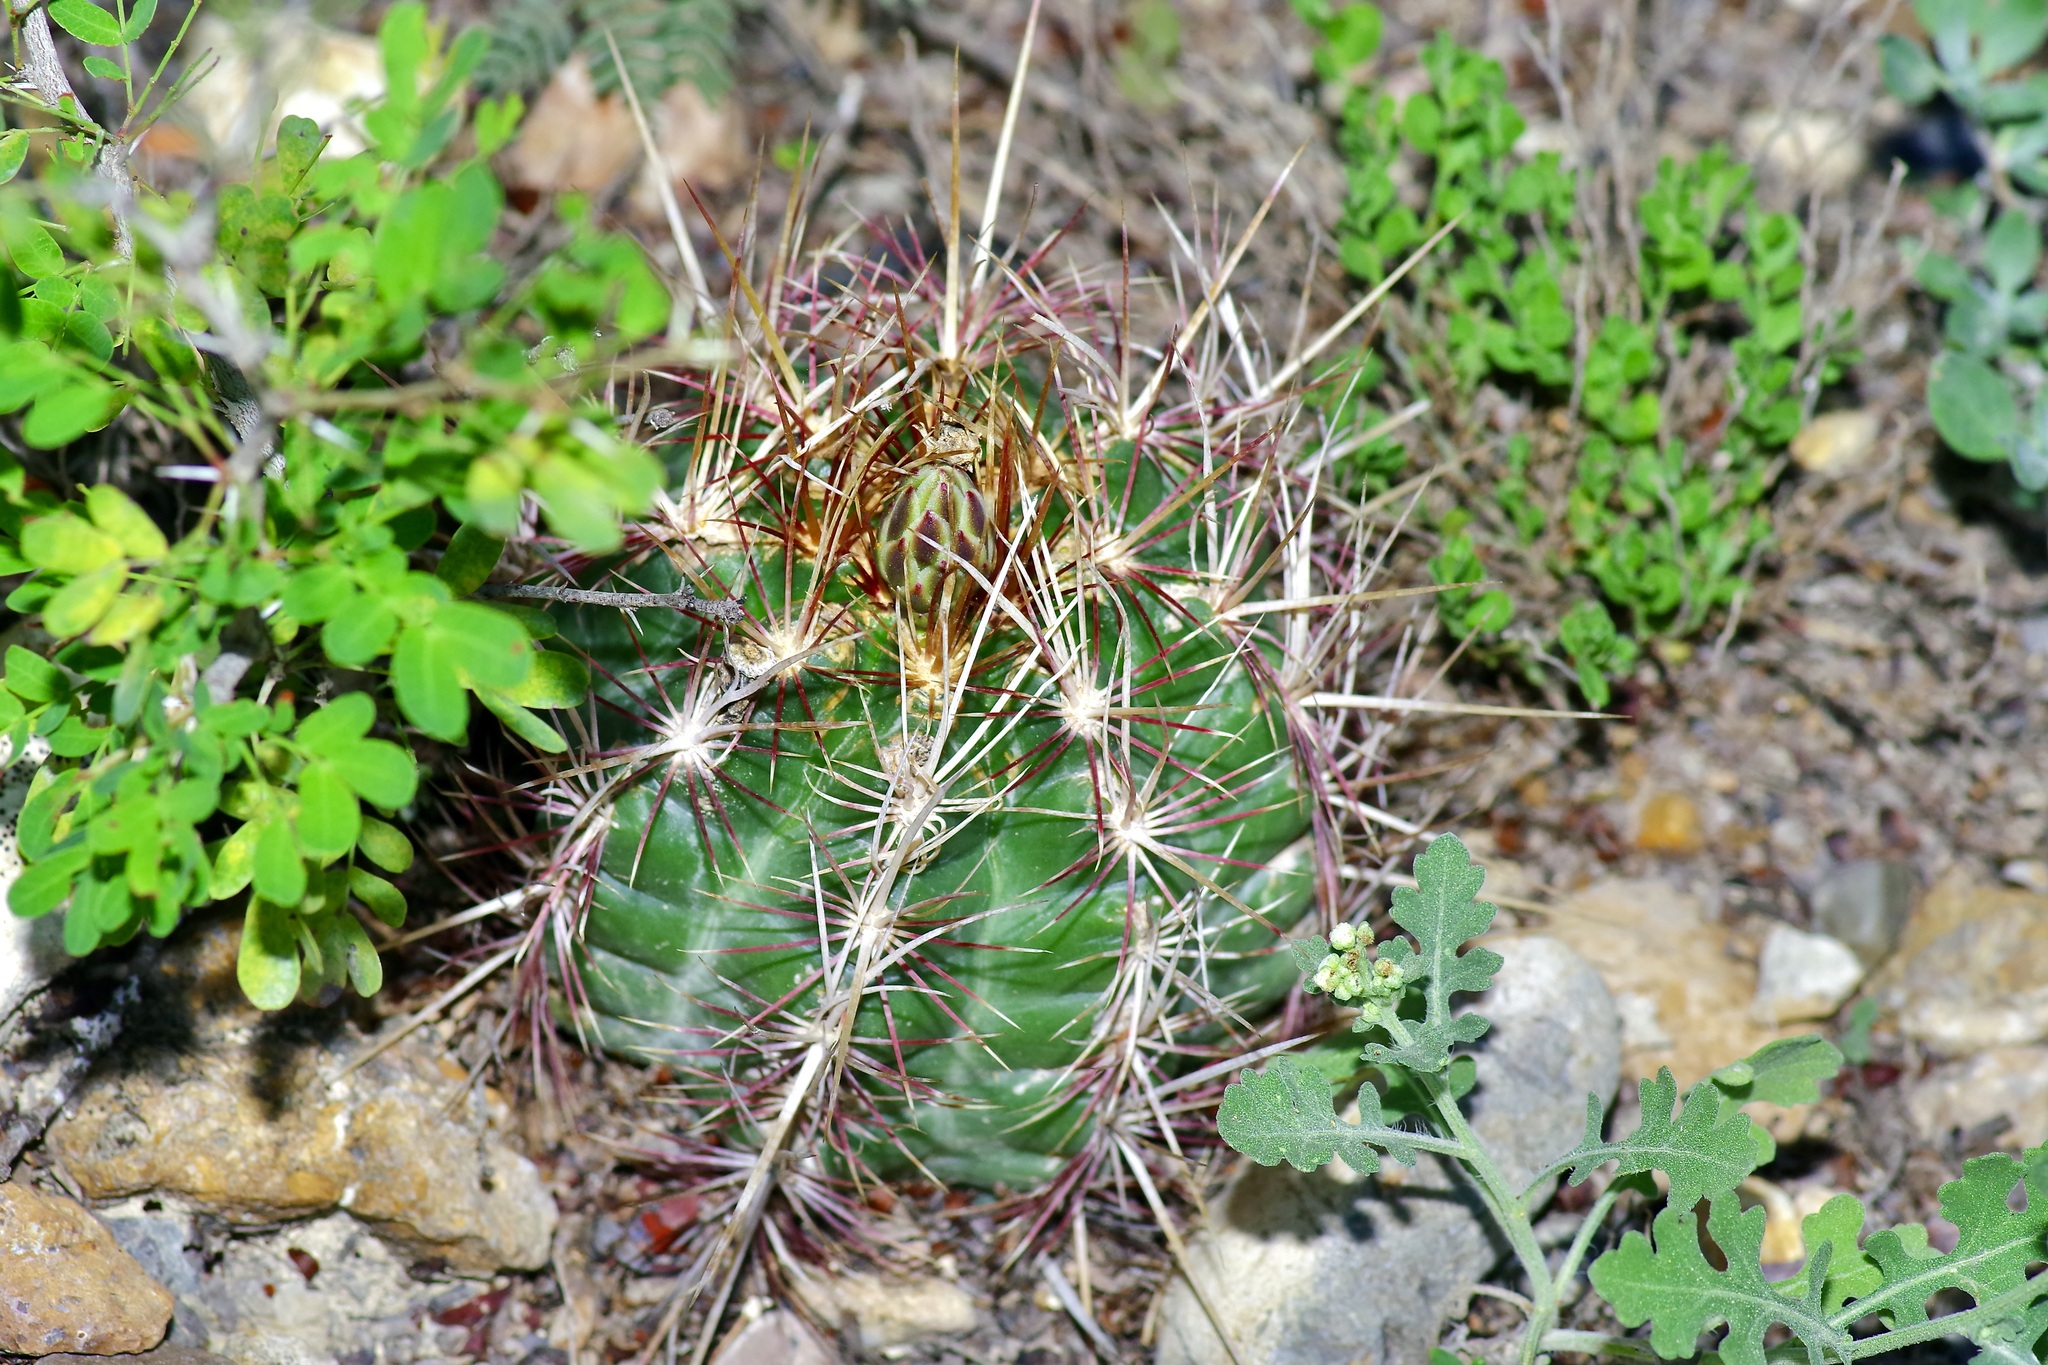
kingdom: Plantae
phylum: Tracheophyta
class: Magnoliopsida
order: Caryophyllales
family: Cactaceae
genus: Thelocactus
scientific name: Thelocactus bicolor
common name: Glory of texas
